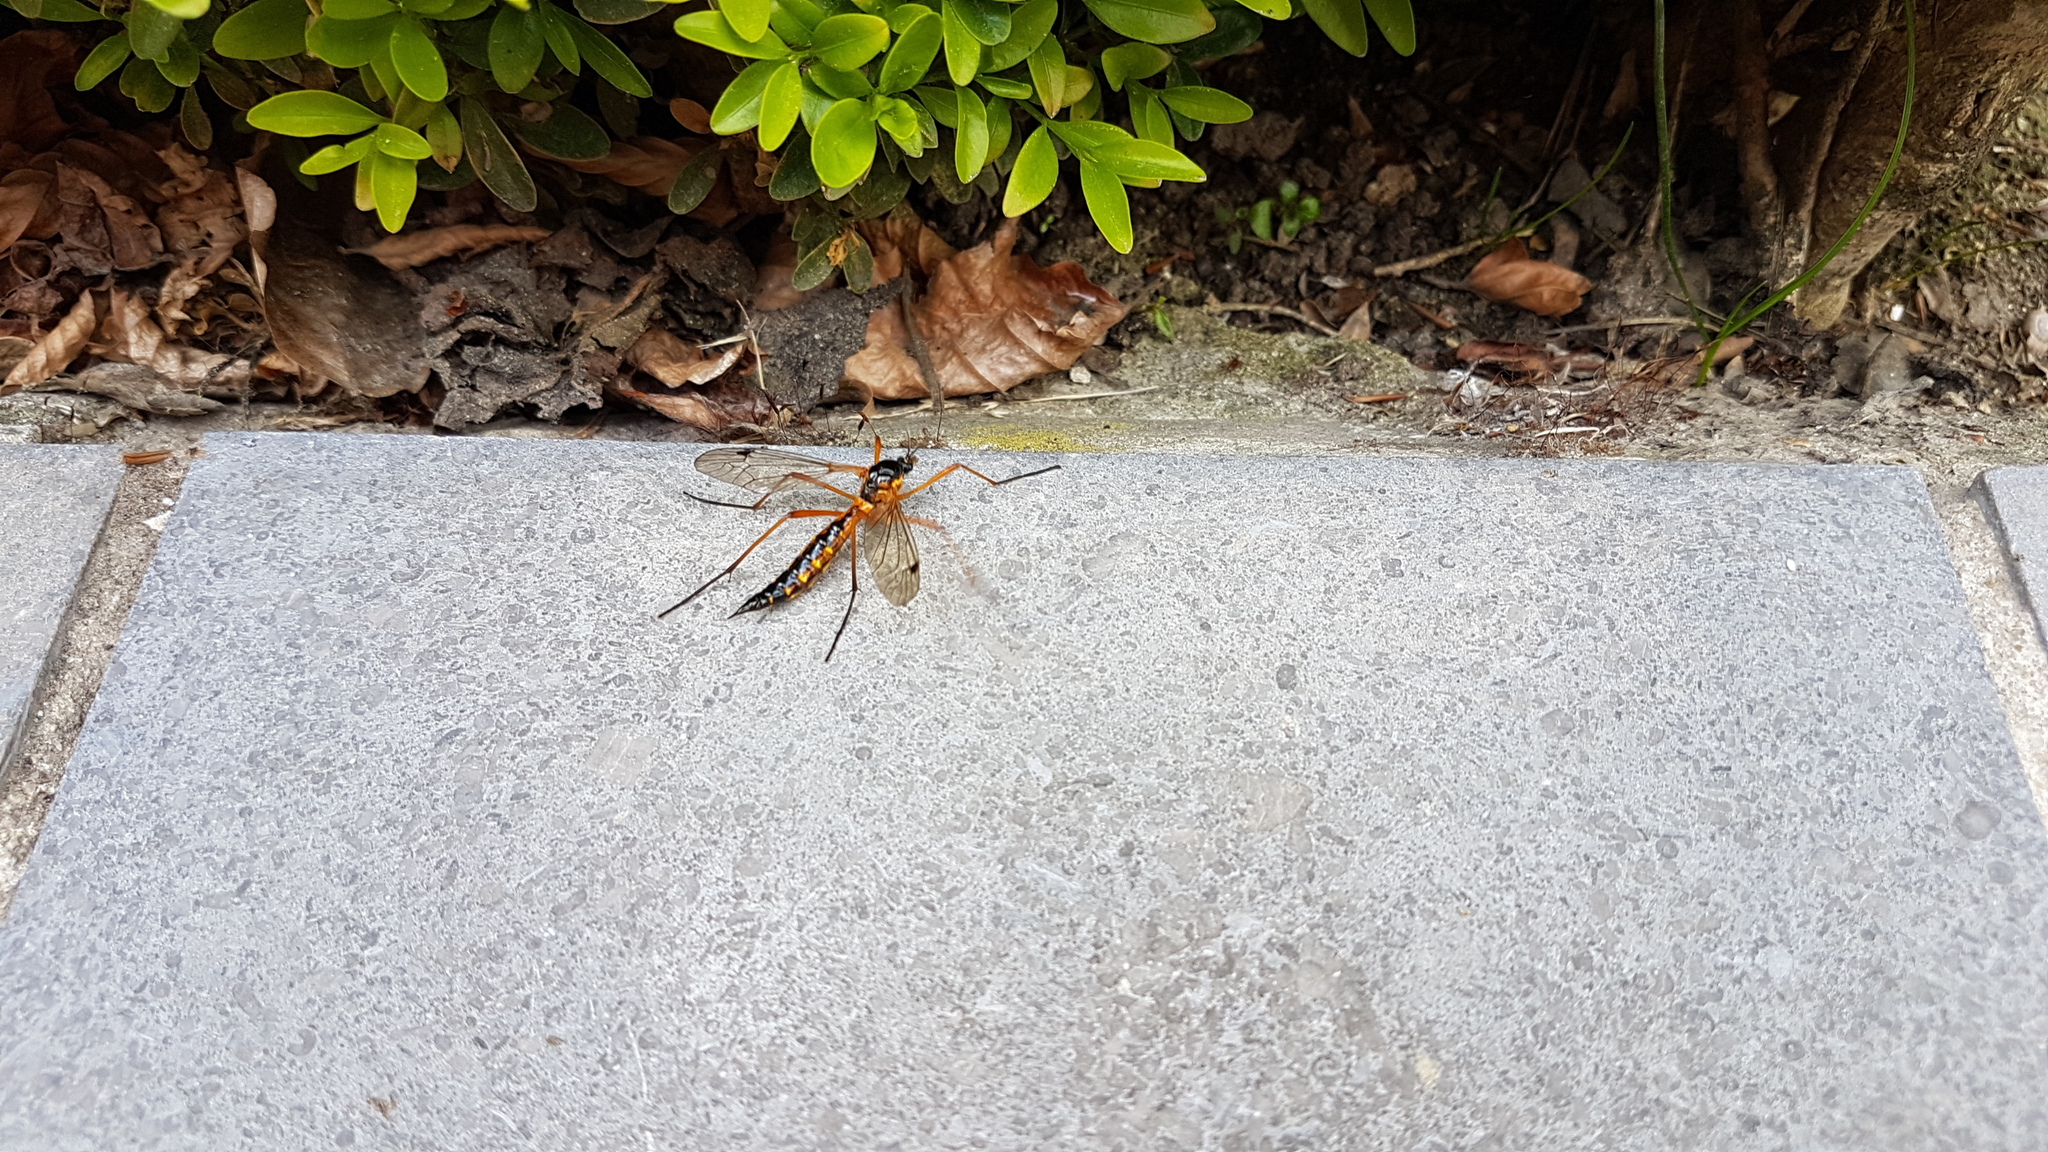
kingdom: Animalia
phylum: Arthropoda
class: Insecta
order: Diptera
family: Tipulidae
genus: Ctenophora
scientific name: Ctenophora pectinicornis
